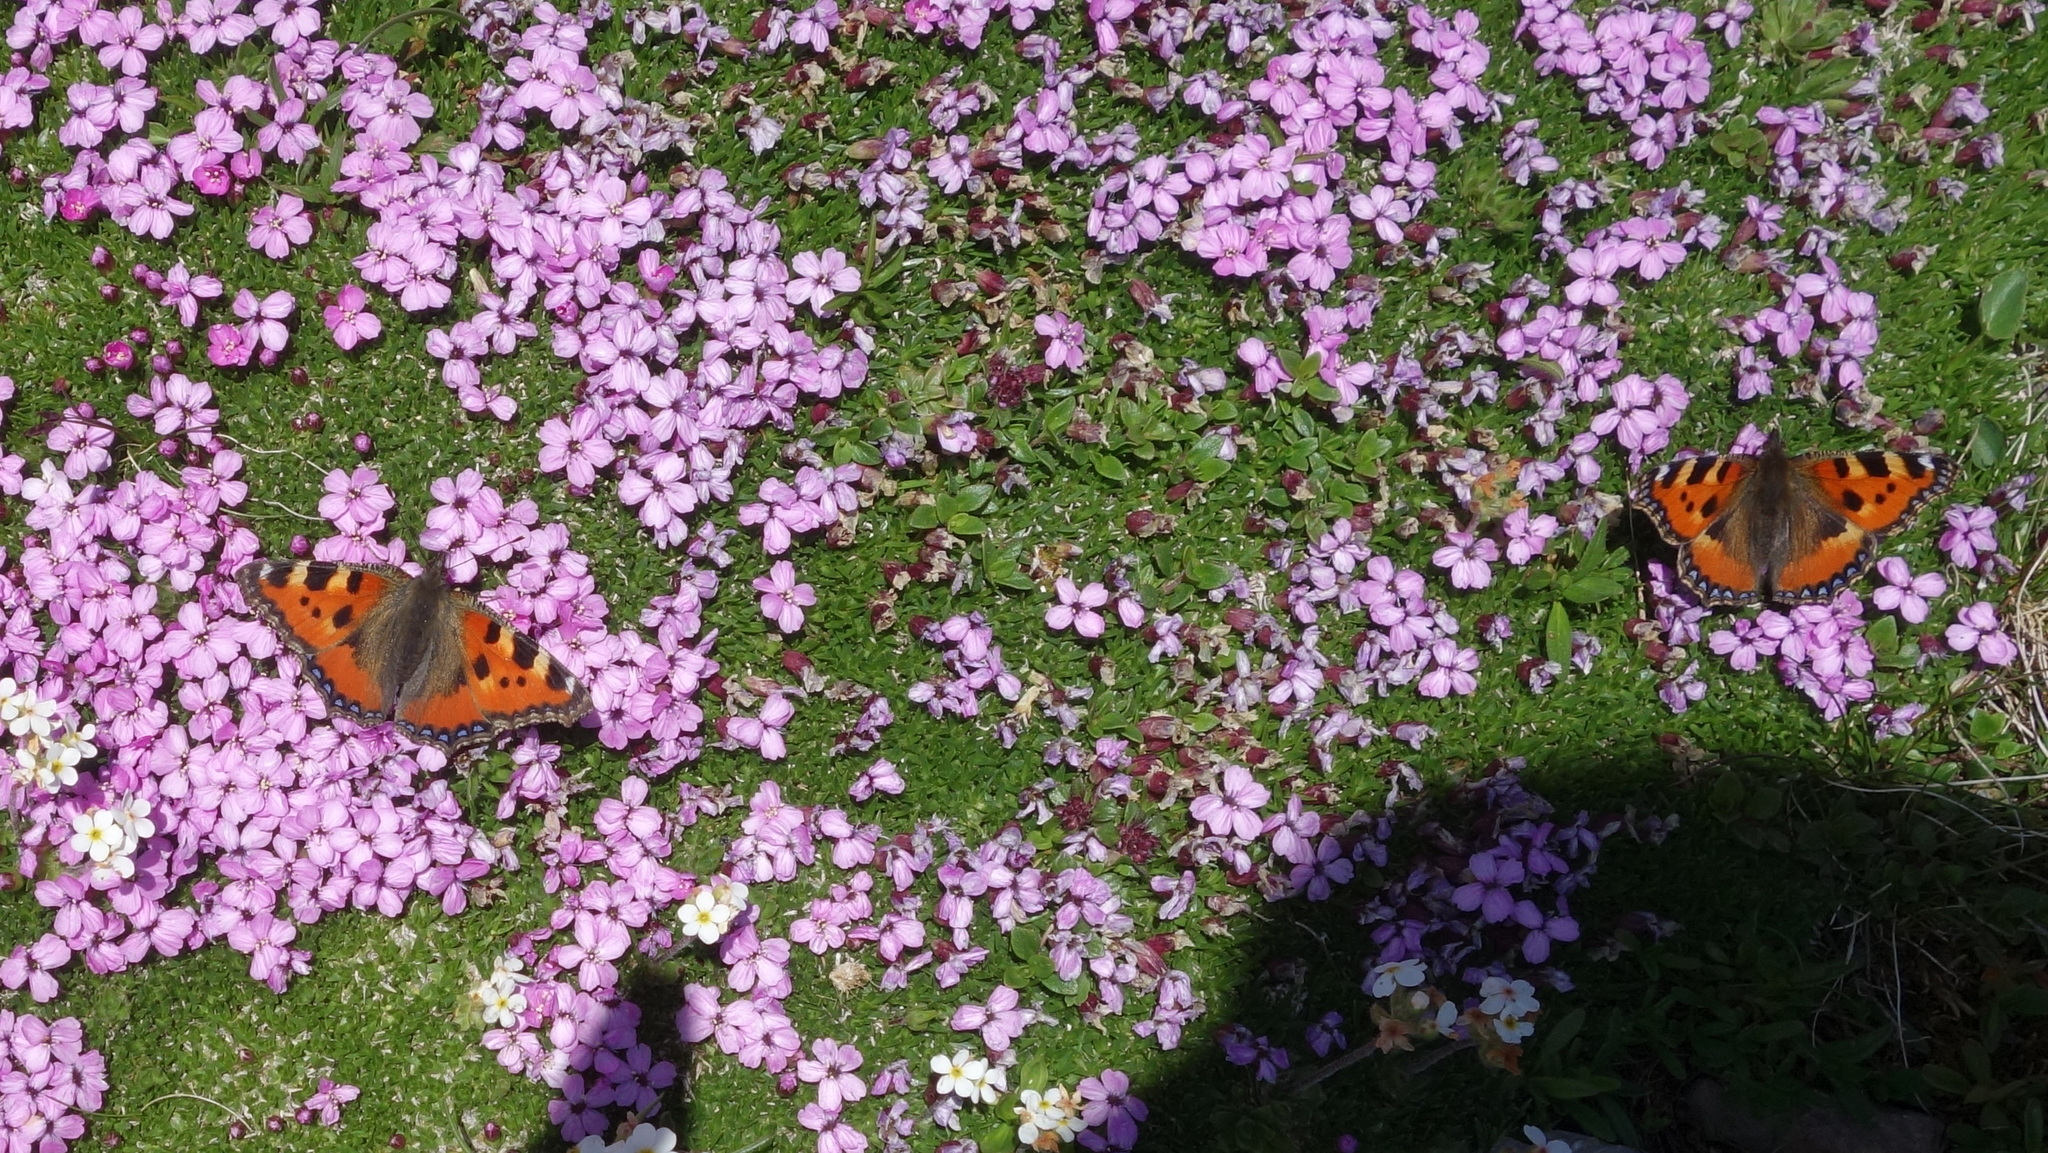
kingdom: Animalia
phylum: Arthropoda
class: Insecta
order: Lepidoptera
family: Nymphalidae
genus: Aglais
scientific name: Aglais urticae
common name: Small tortoiseshell
